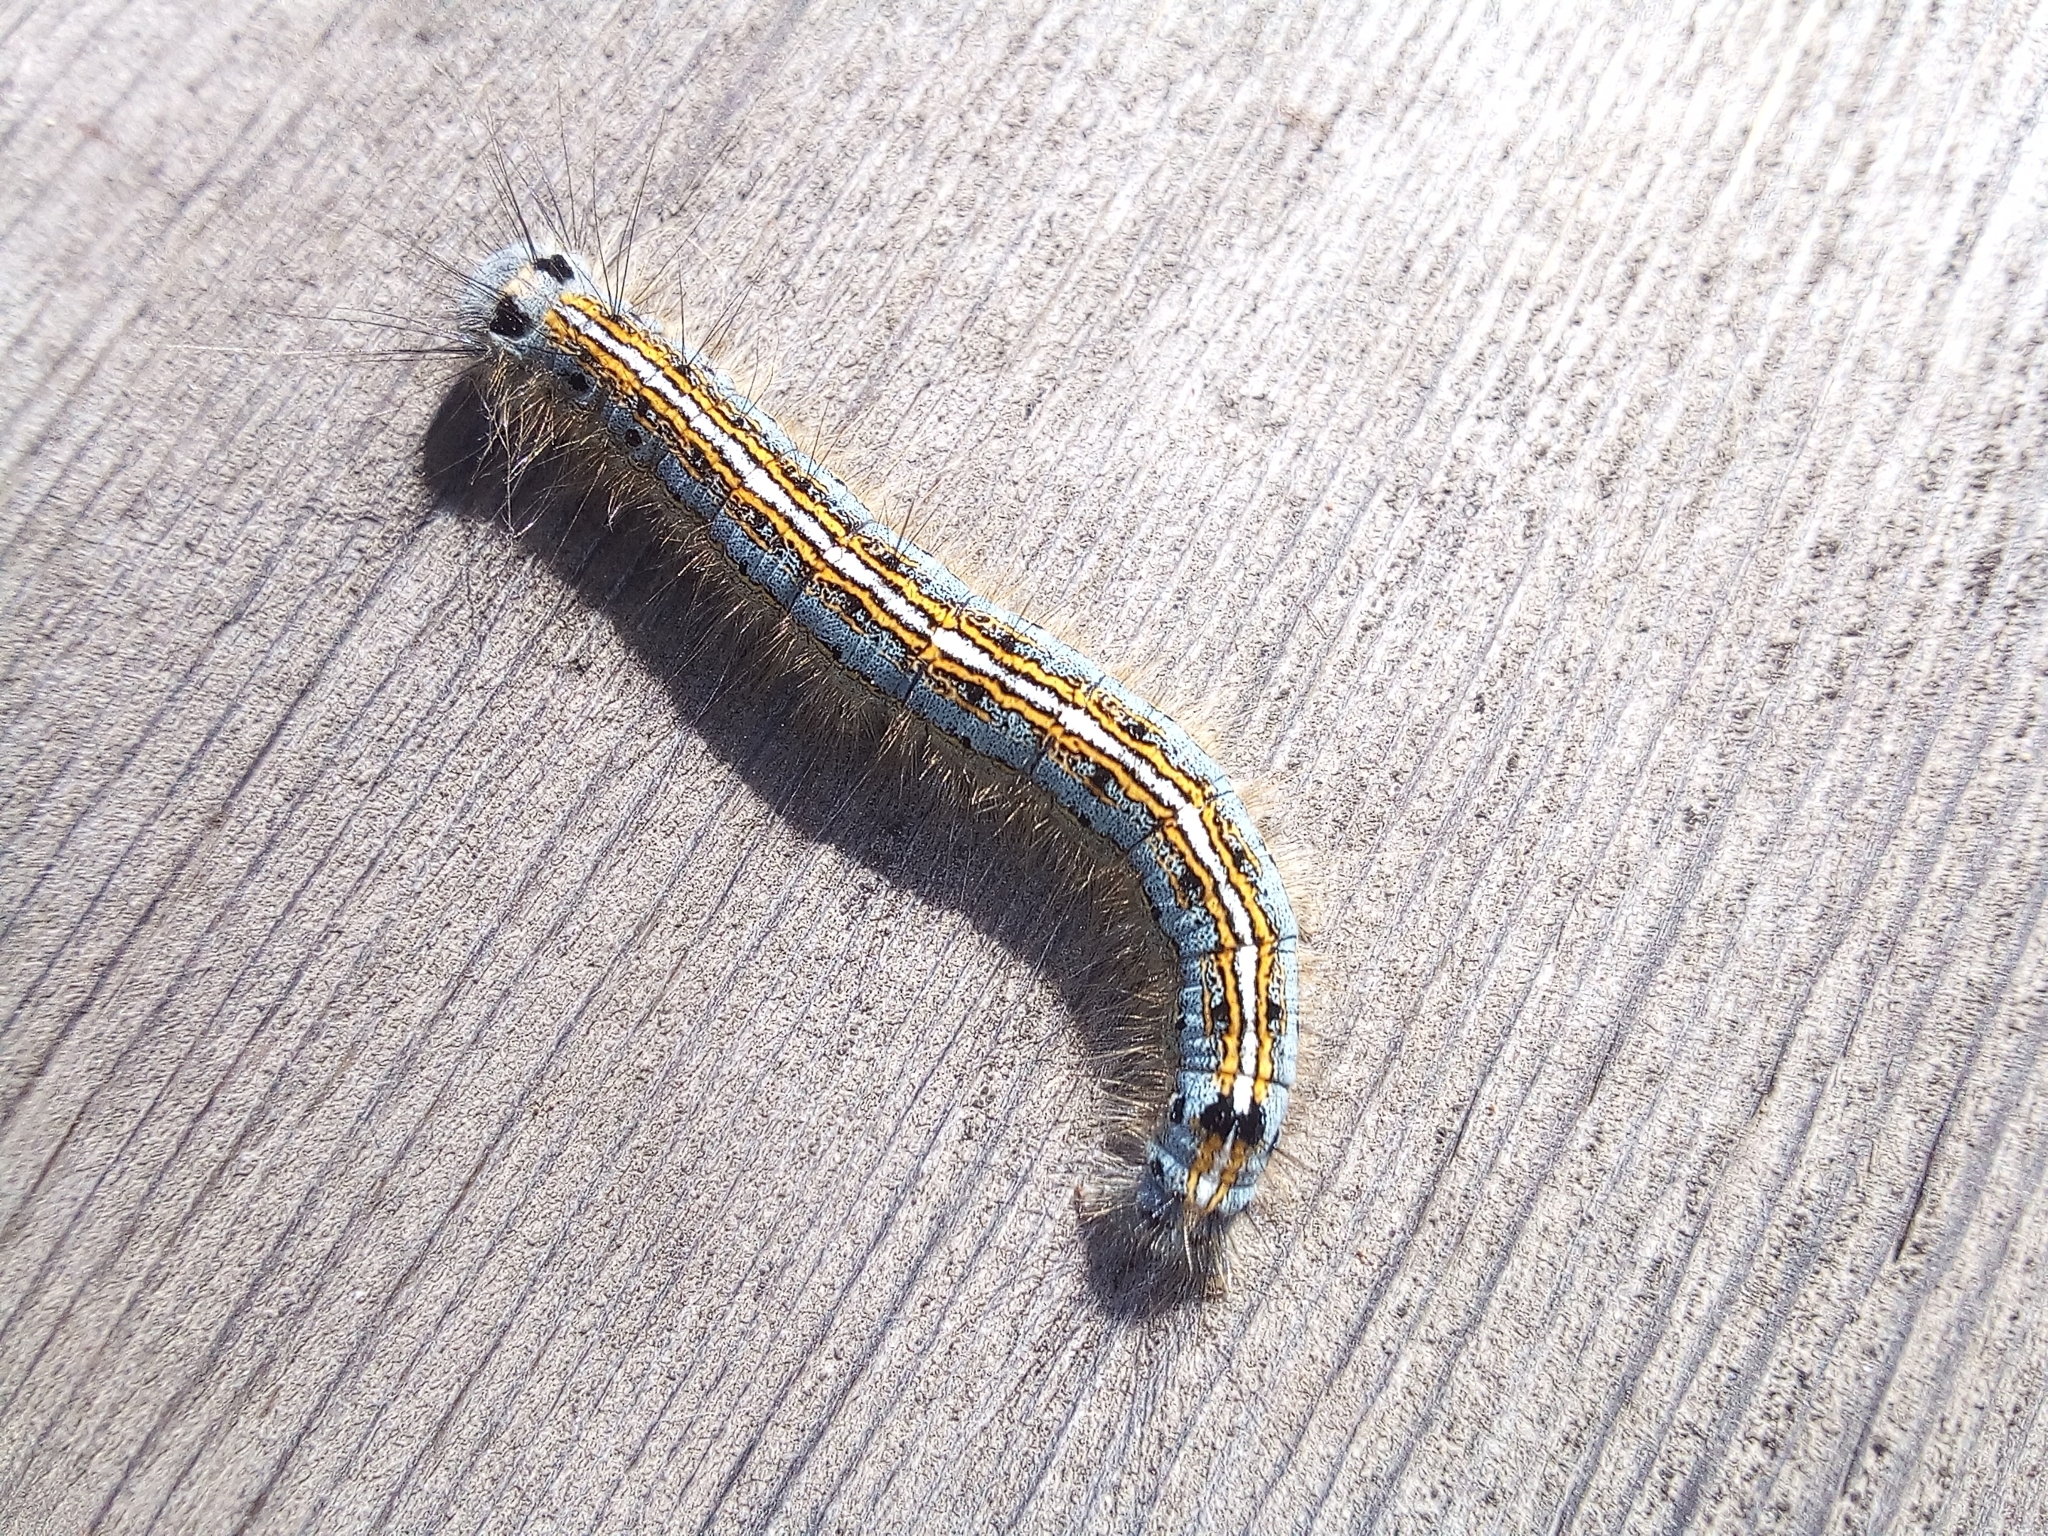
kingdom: Animalia
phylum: Arthropoda
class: Insecta
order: Lepidoptera
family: Lasiocampidae
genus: Malacosoma
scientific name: Malacosoma neustria
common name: The lackey
